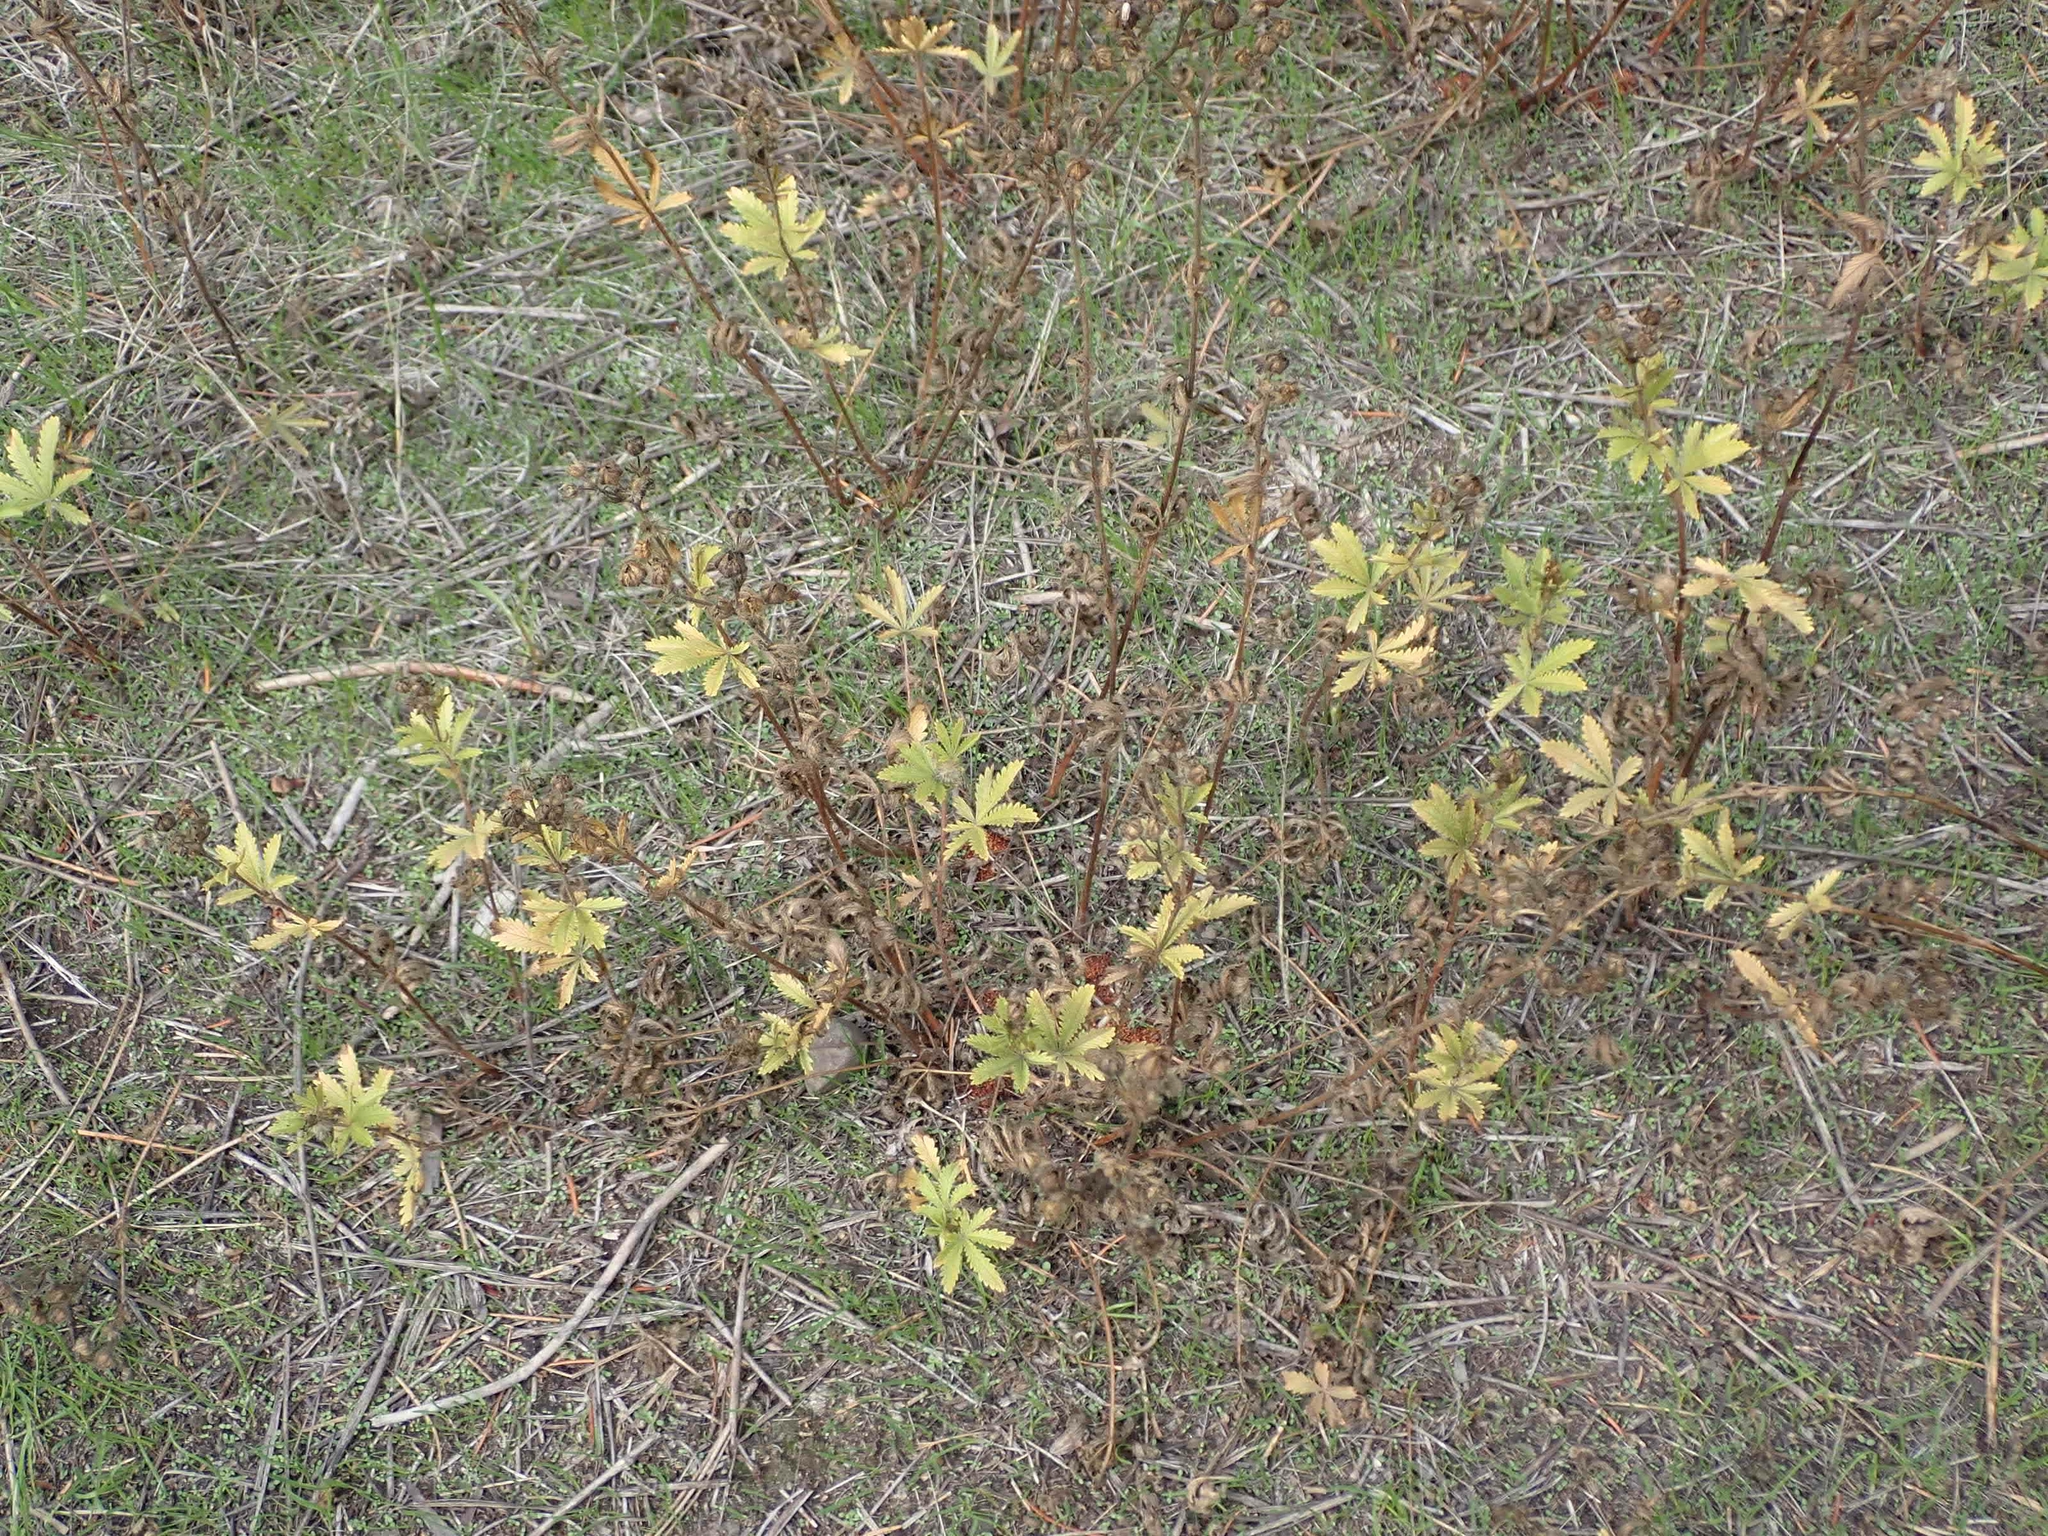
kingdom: Plantae
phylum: Tracheophyta
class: Magnoliopsida
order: Rosales
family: Rosaceae
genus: Potentilla
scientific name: Potentilla recta
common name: Sulphur cinquefoil
